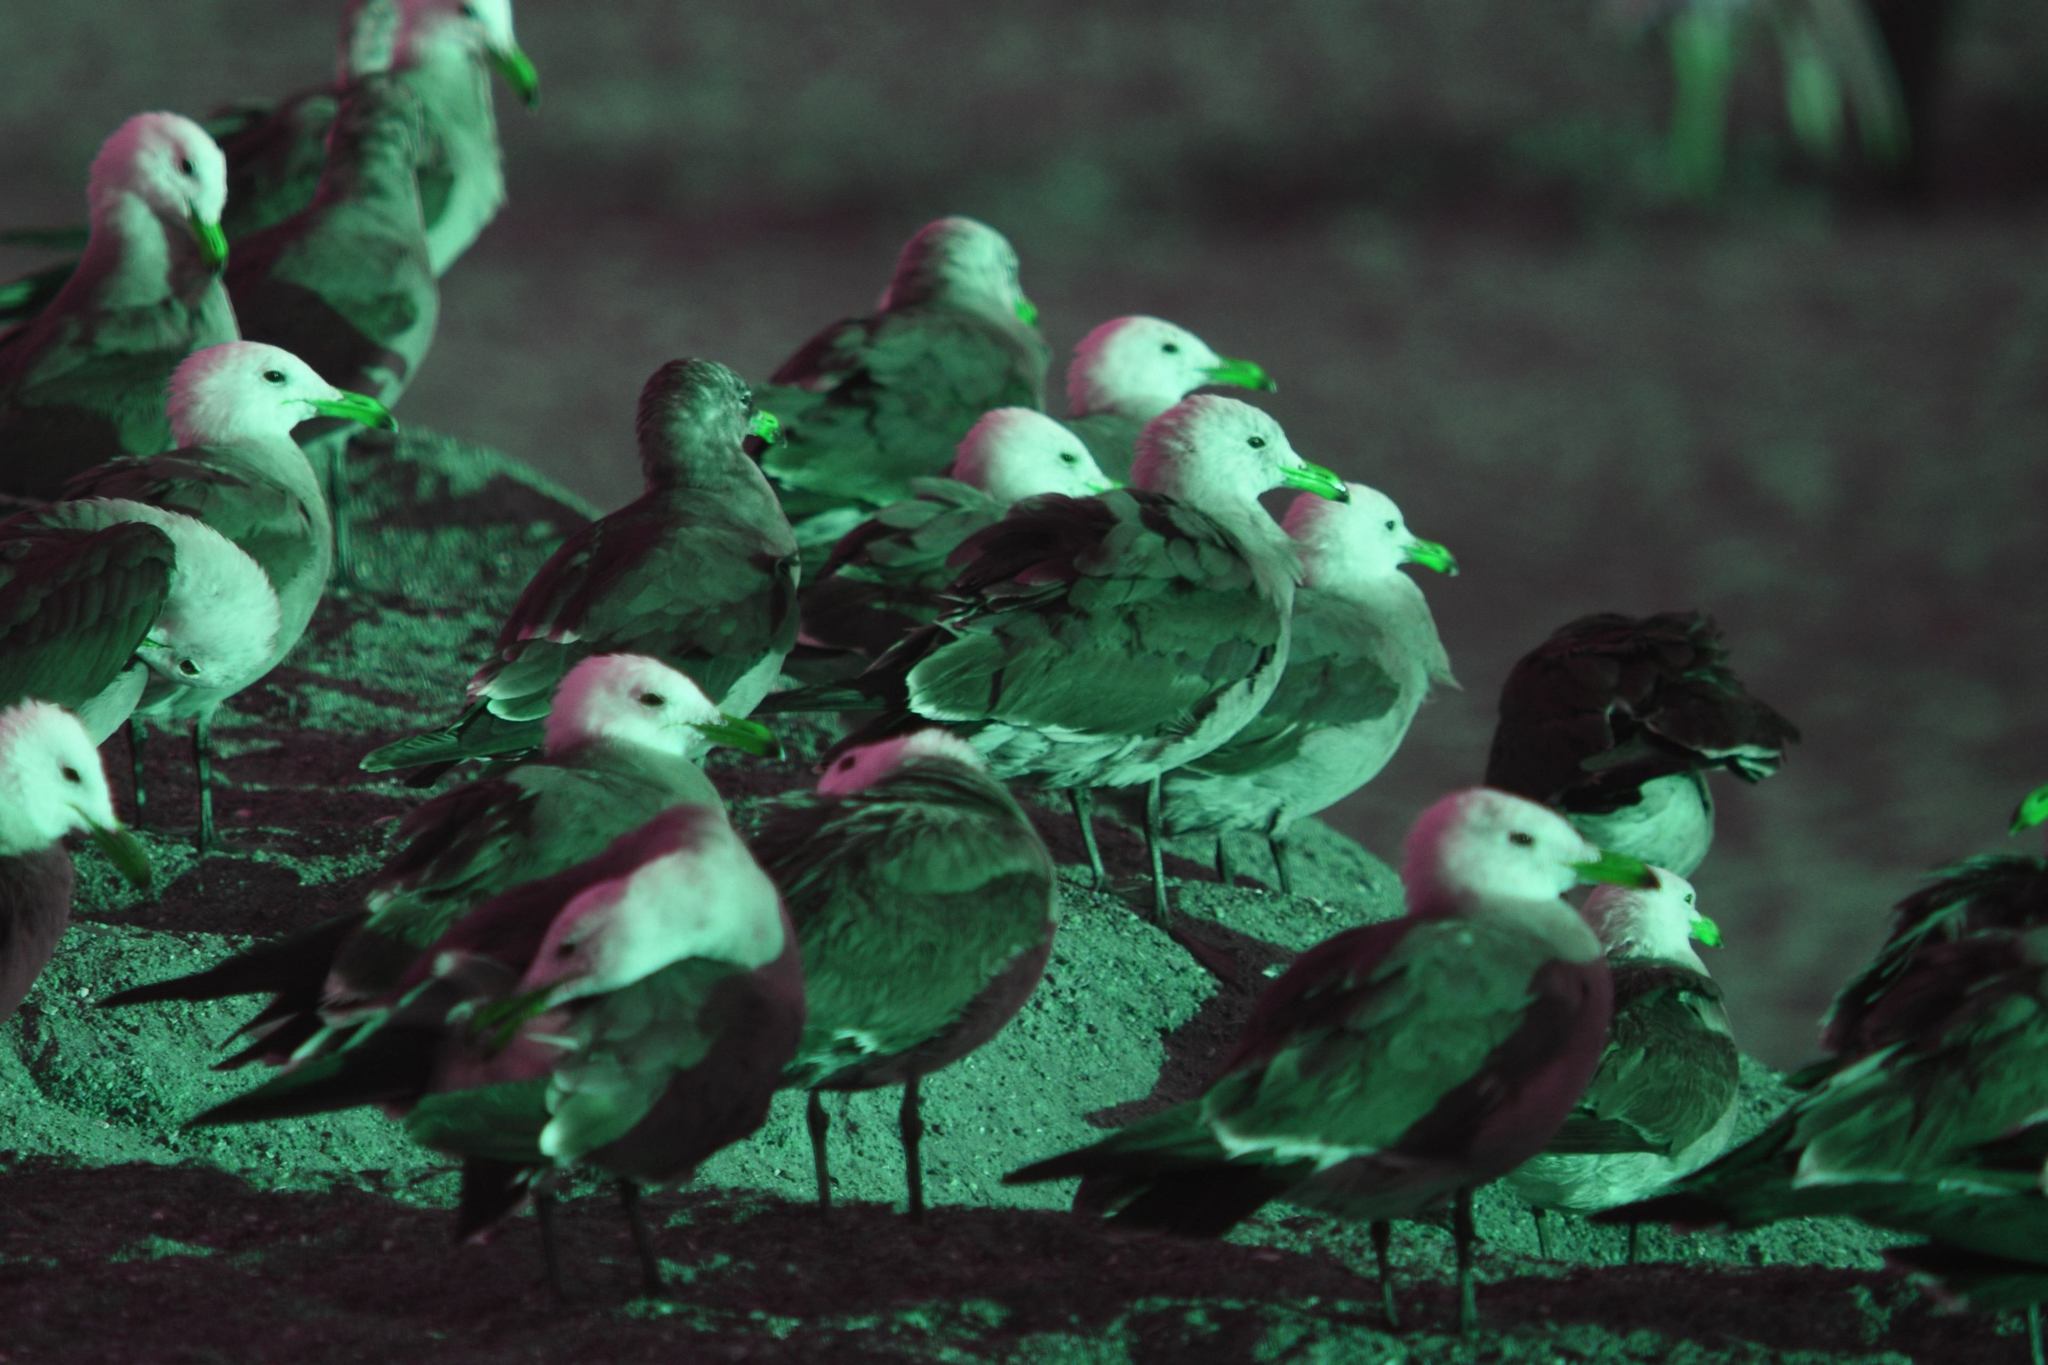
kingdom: Animalia
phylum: Chordata
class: Aves
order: Charadriiformes
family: Laridae
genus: Larus
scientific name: Larus heermanni
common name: Heermann's gull
